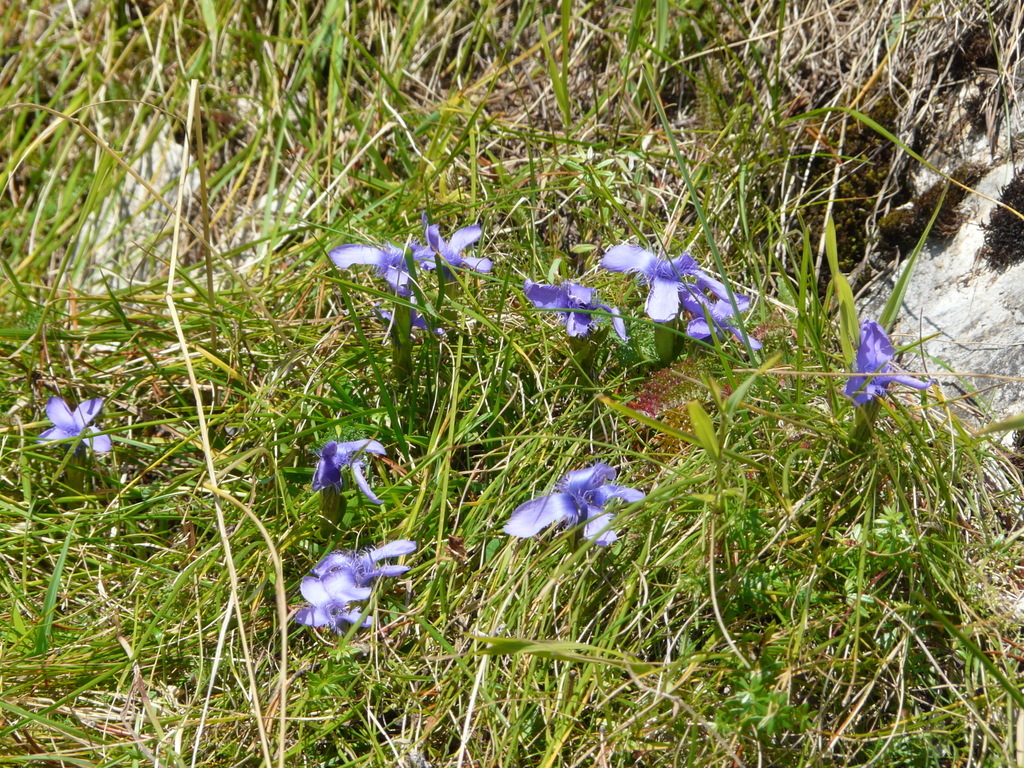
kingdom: Plantae
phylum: Tracheophyta
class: Magnoliopsida
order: Gentianales
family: Gentianaceae
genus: Gentianopsis
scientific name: Gentianopsis ciliata
